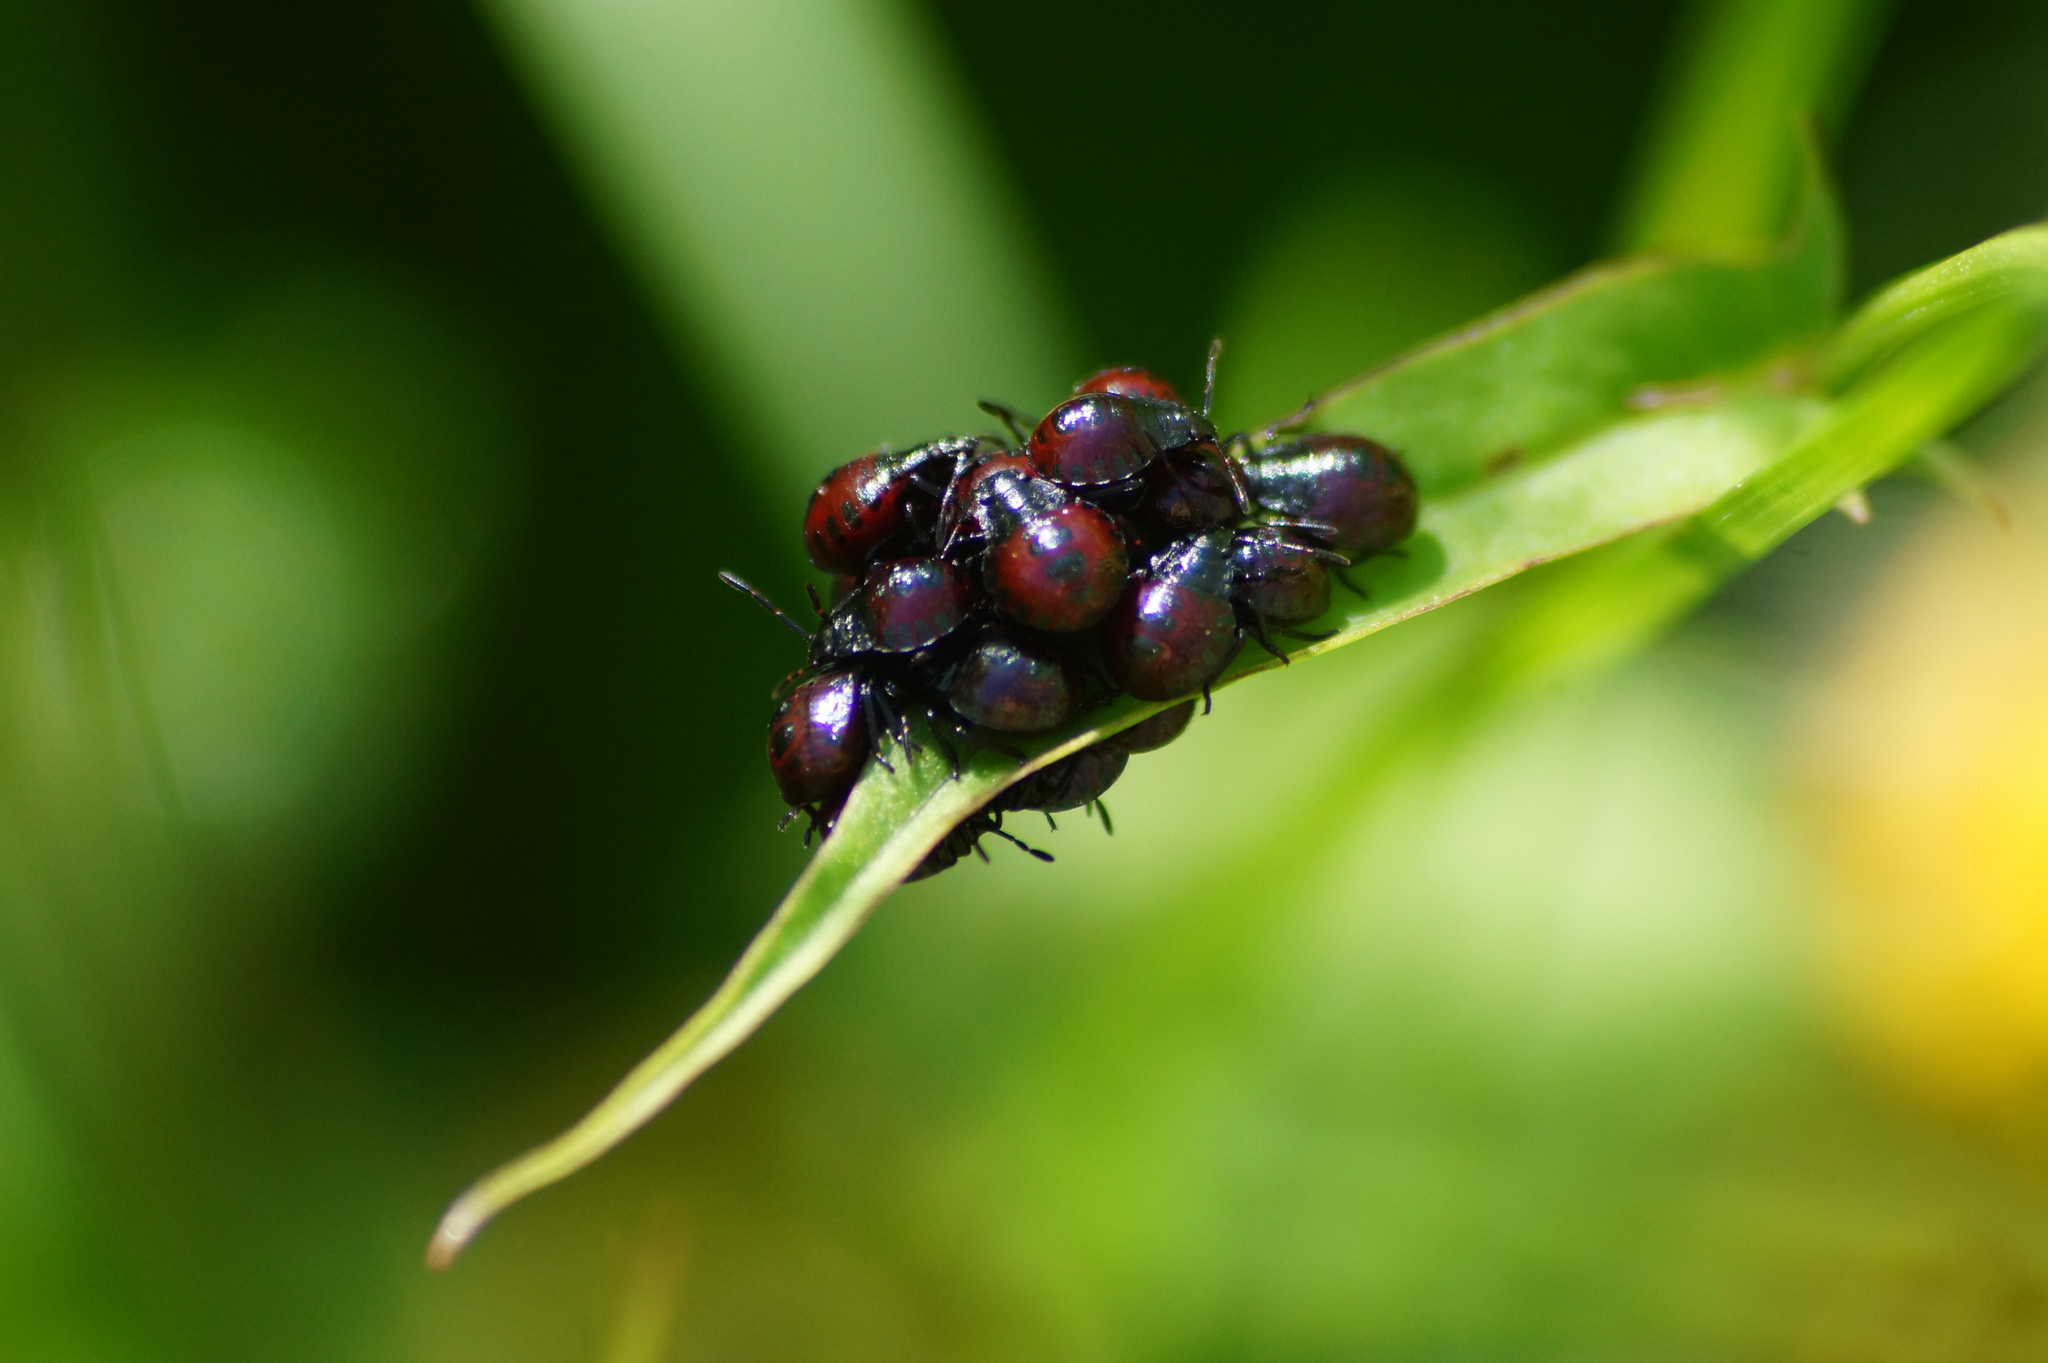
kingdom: Animalia
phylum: Arthropoda
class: Insecta
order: Hemiptera
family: Pentatomidae
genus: Picromerus
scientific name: Picromerus bidens
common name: Spiked shieldbug
